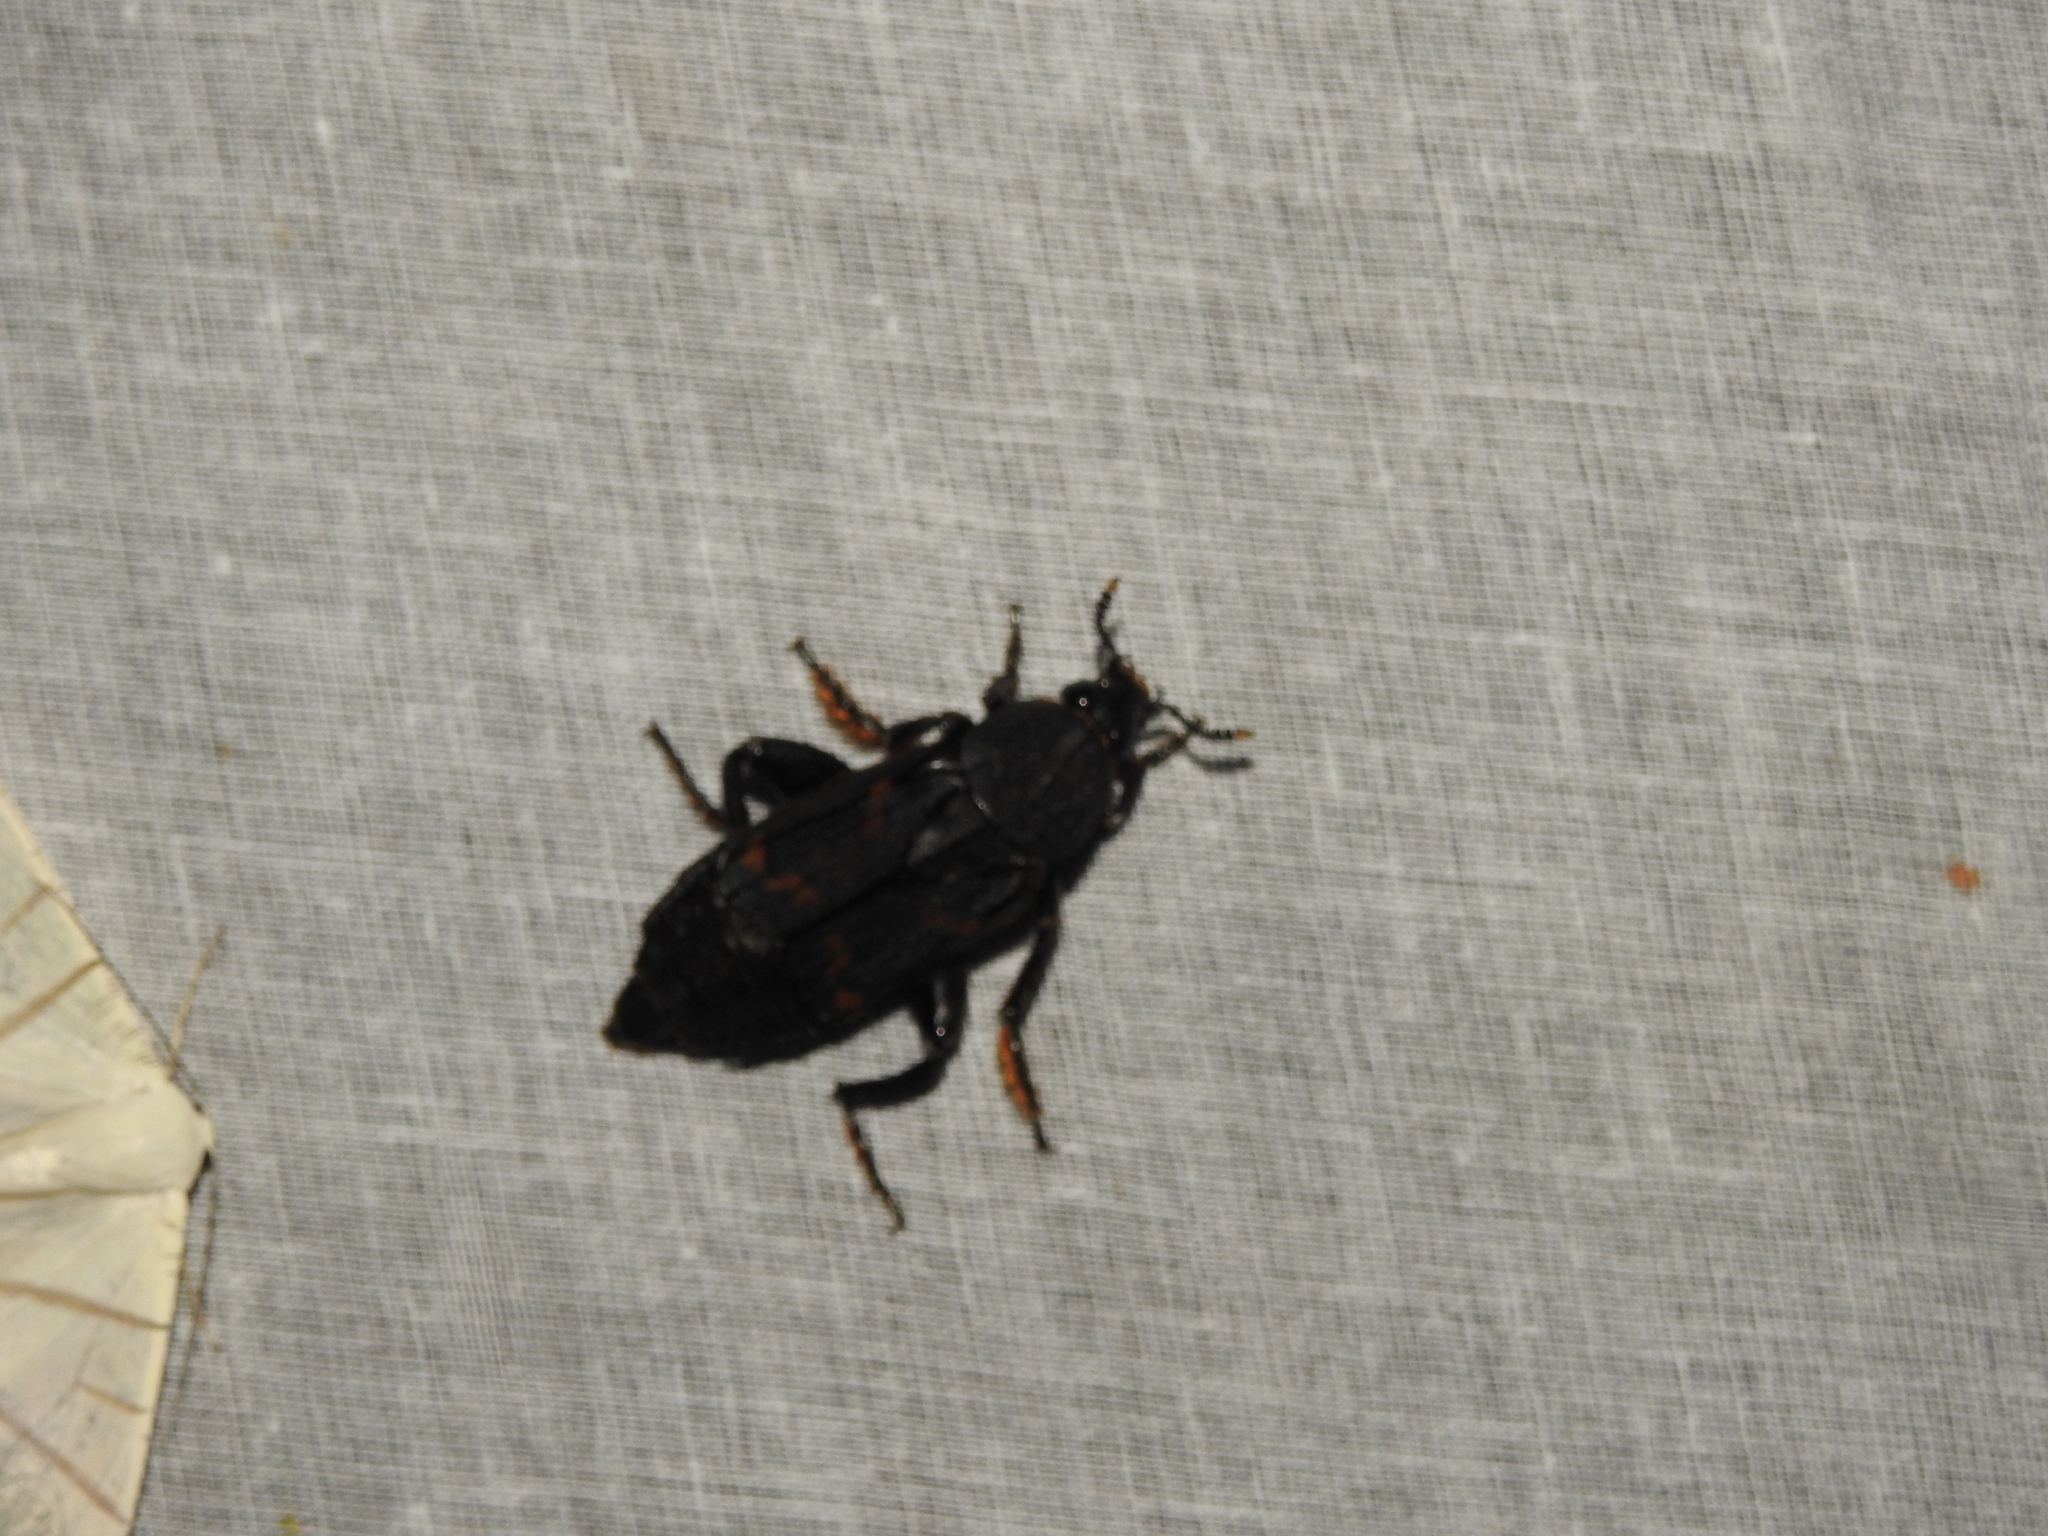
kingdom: Animalia
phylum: Arthropoda
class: Insecta
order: Coleoptera
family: Staphylinidae
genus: Diamesus
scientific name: Diamesus osculans
